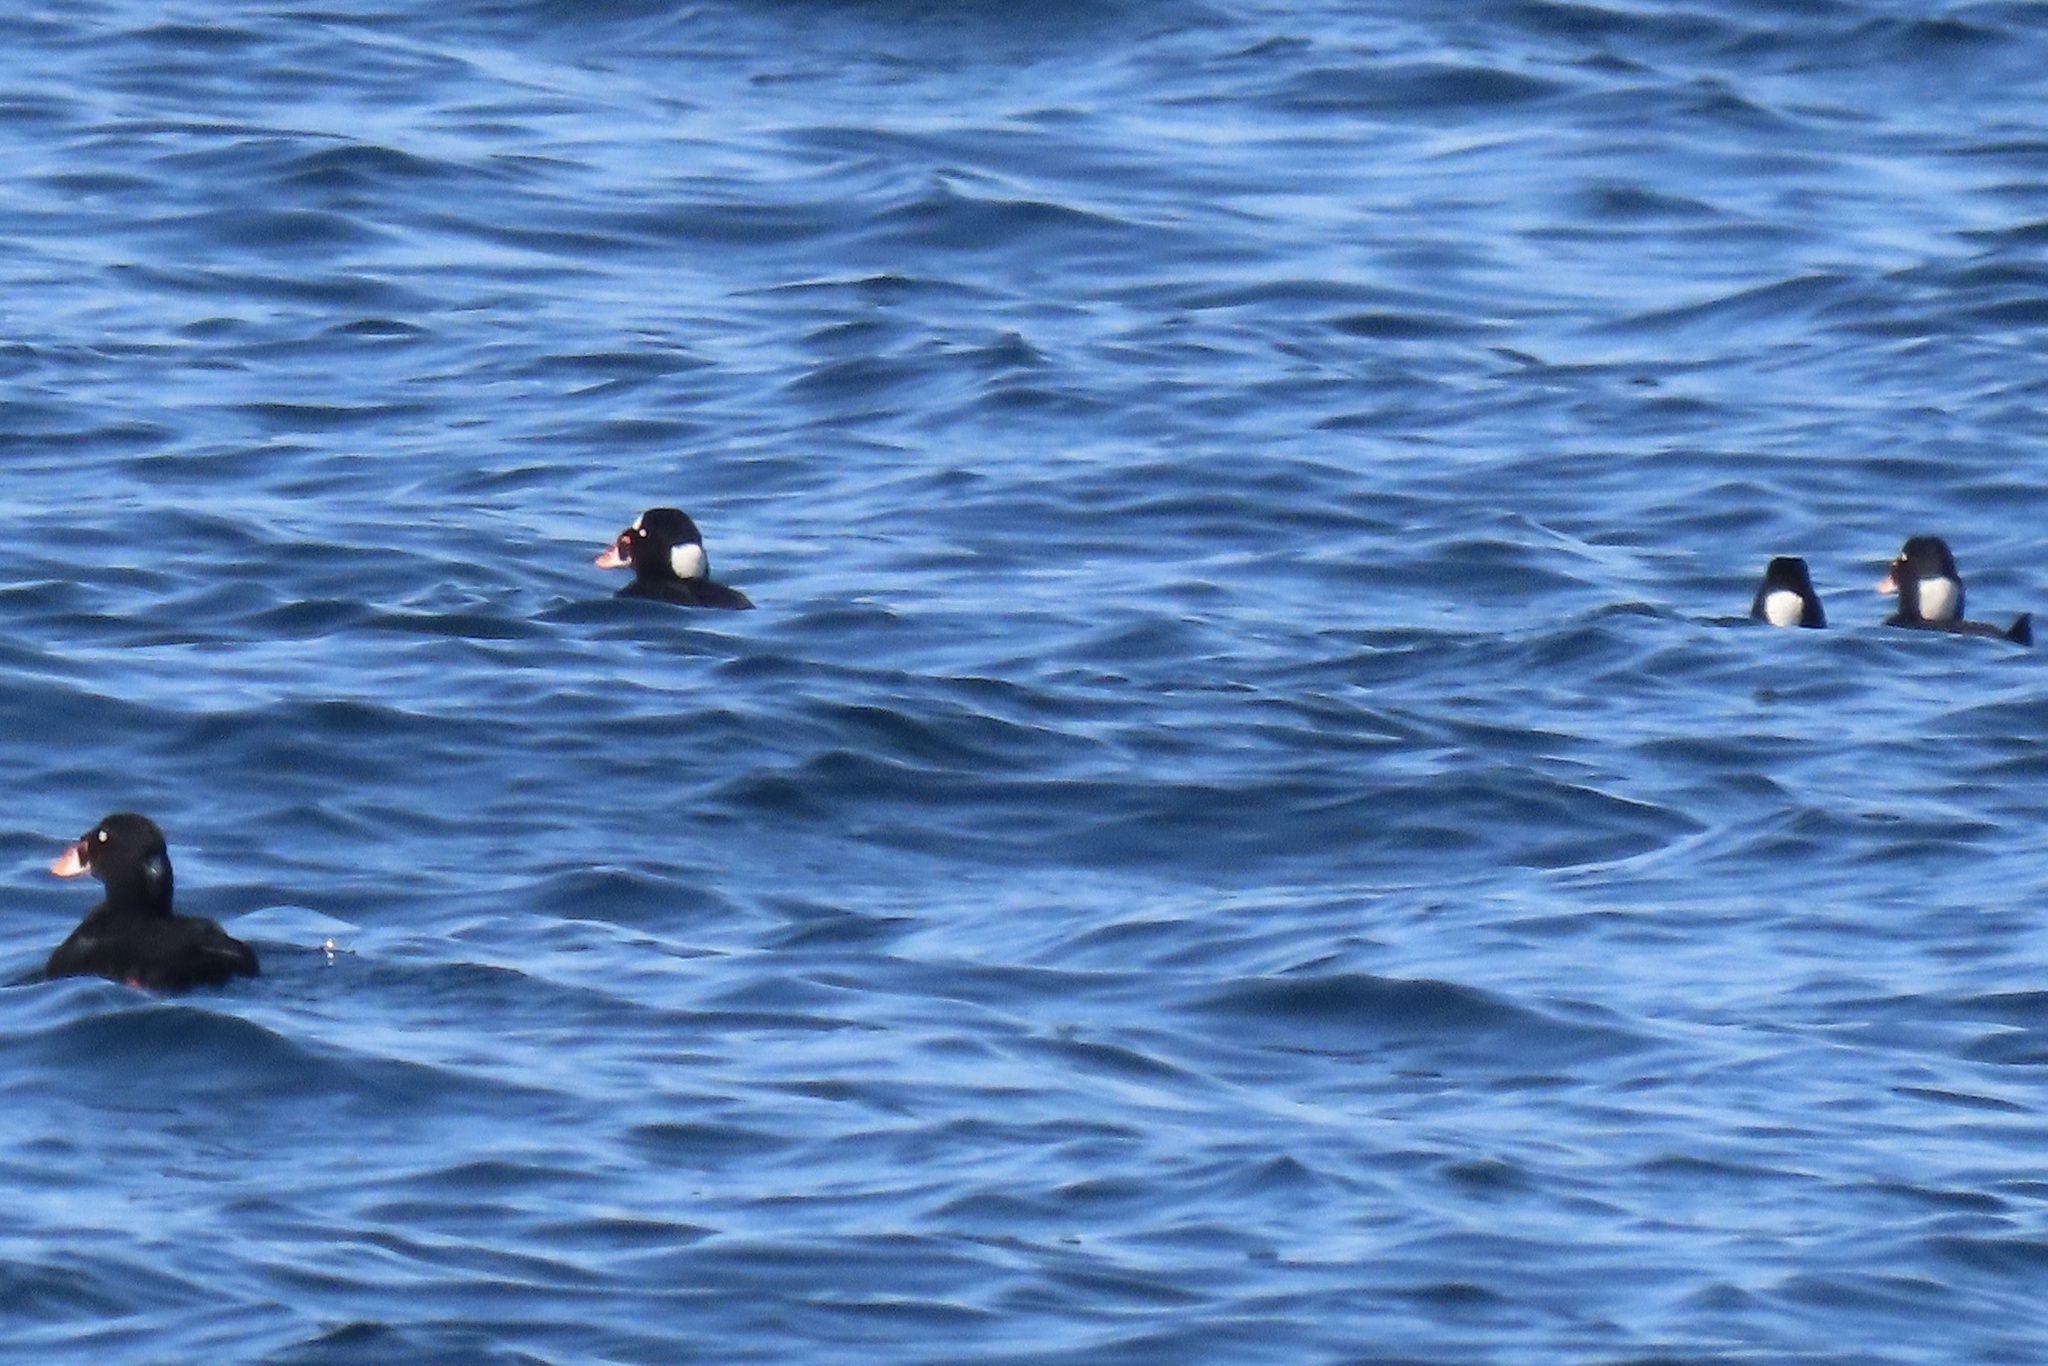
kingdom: Animalia
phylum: Chordata
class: Aves
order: Anseriformes
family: Anatidae
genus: Melanitta
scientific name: Melanitta perspicillata
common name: Surf scoter
